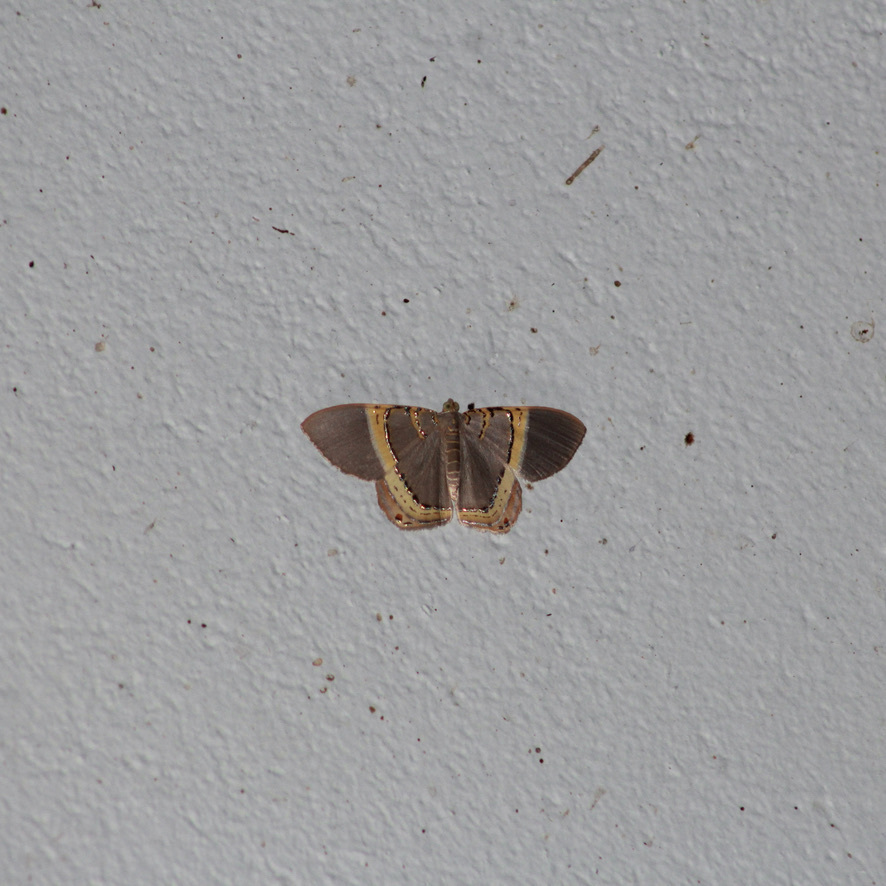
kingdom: Animalia
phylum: Arthropoda
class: Insecta
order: Lepidoptera
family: Geometridae
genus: Phrygionis
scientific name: Phrygionis privignaria
